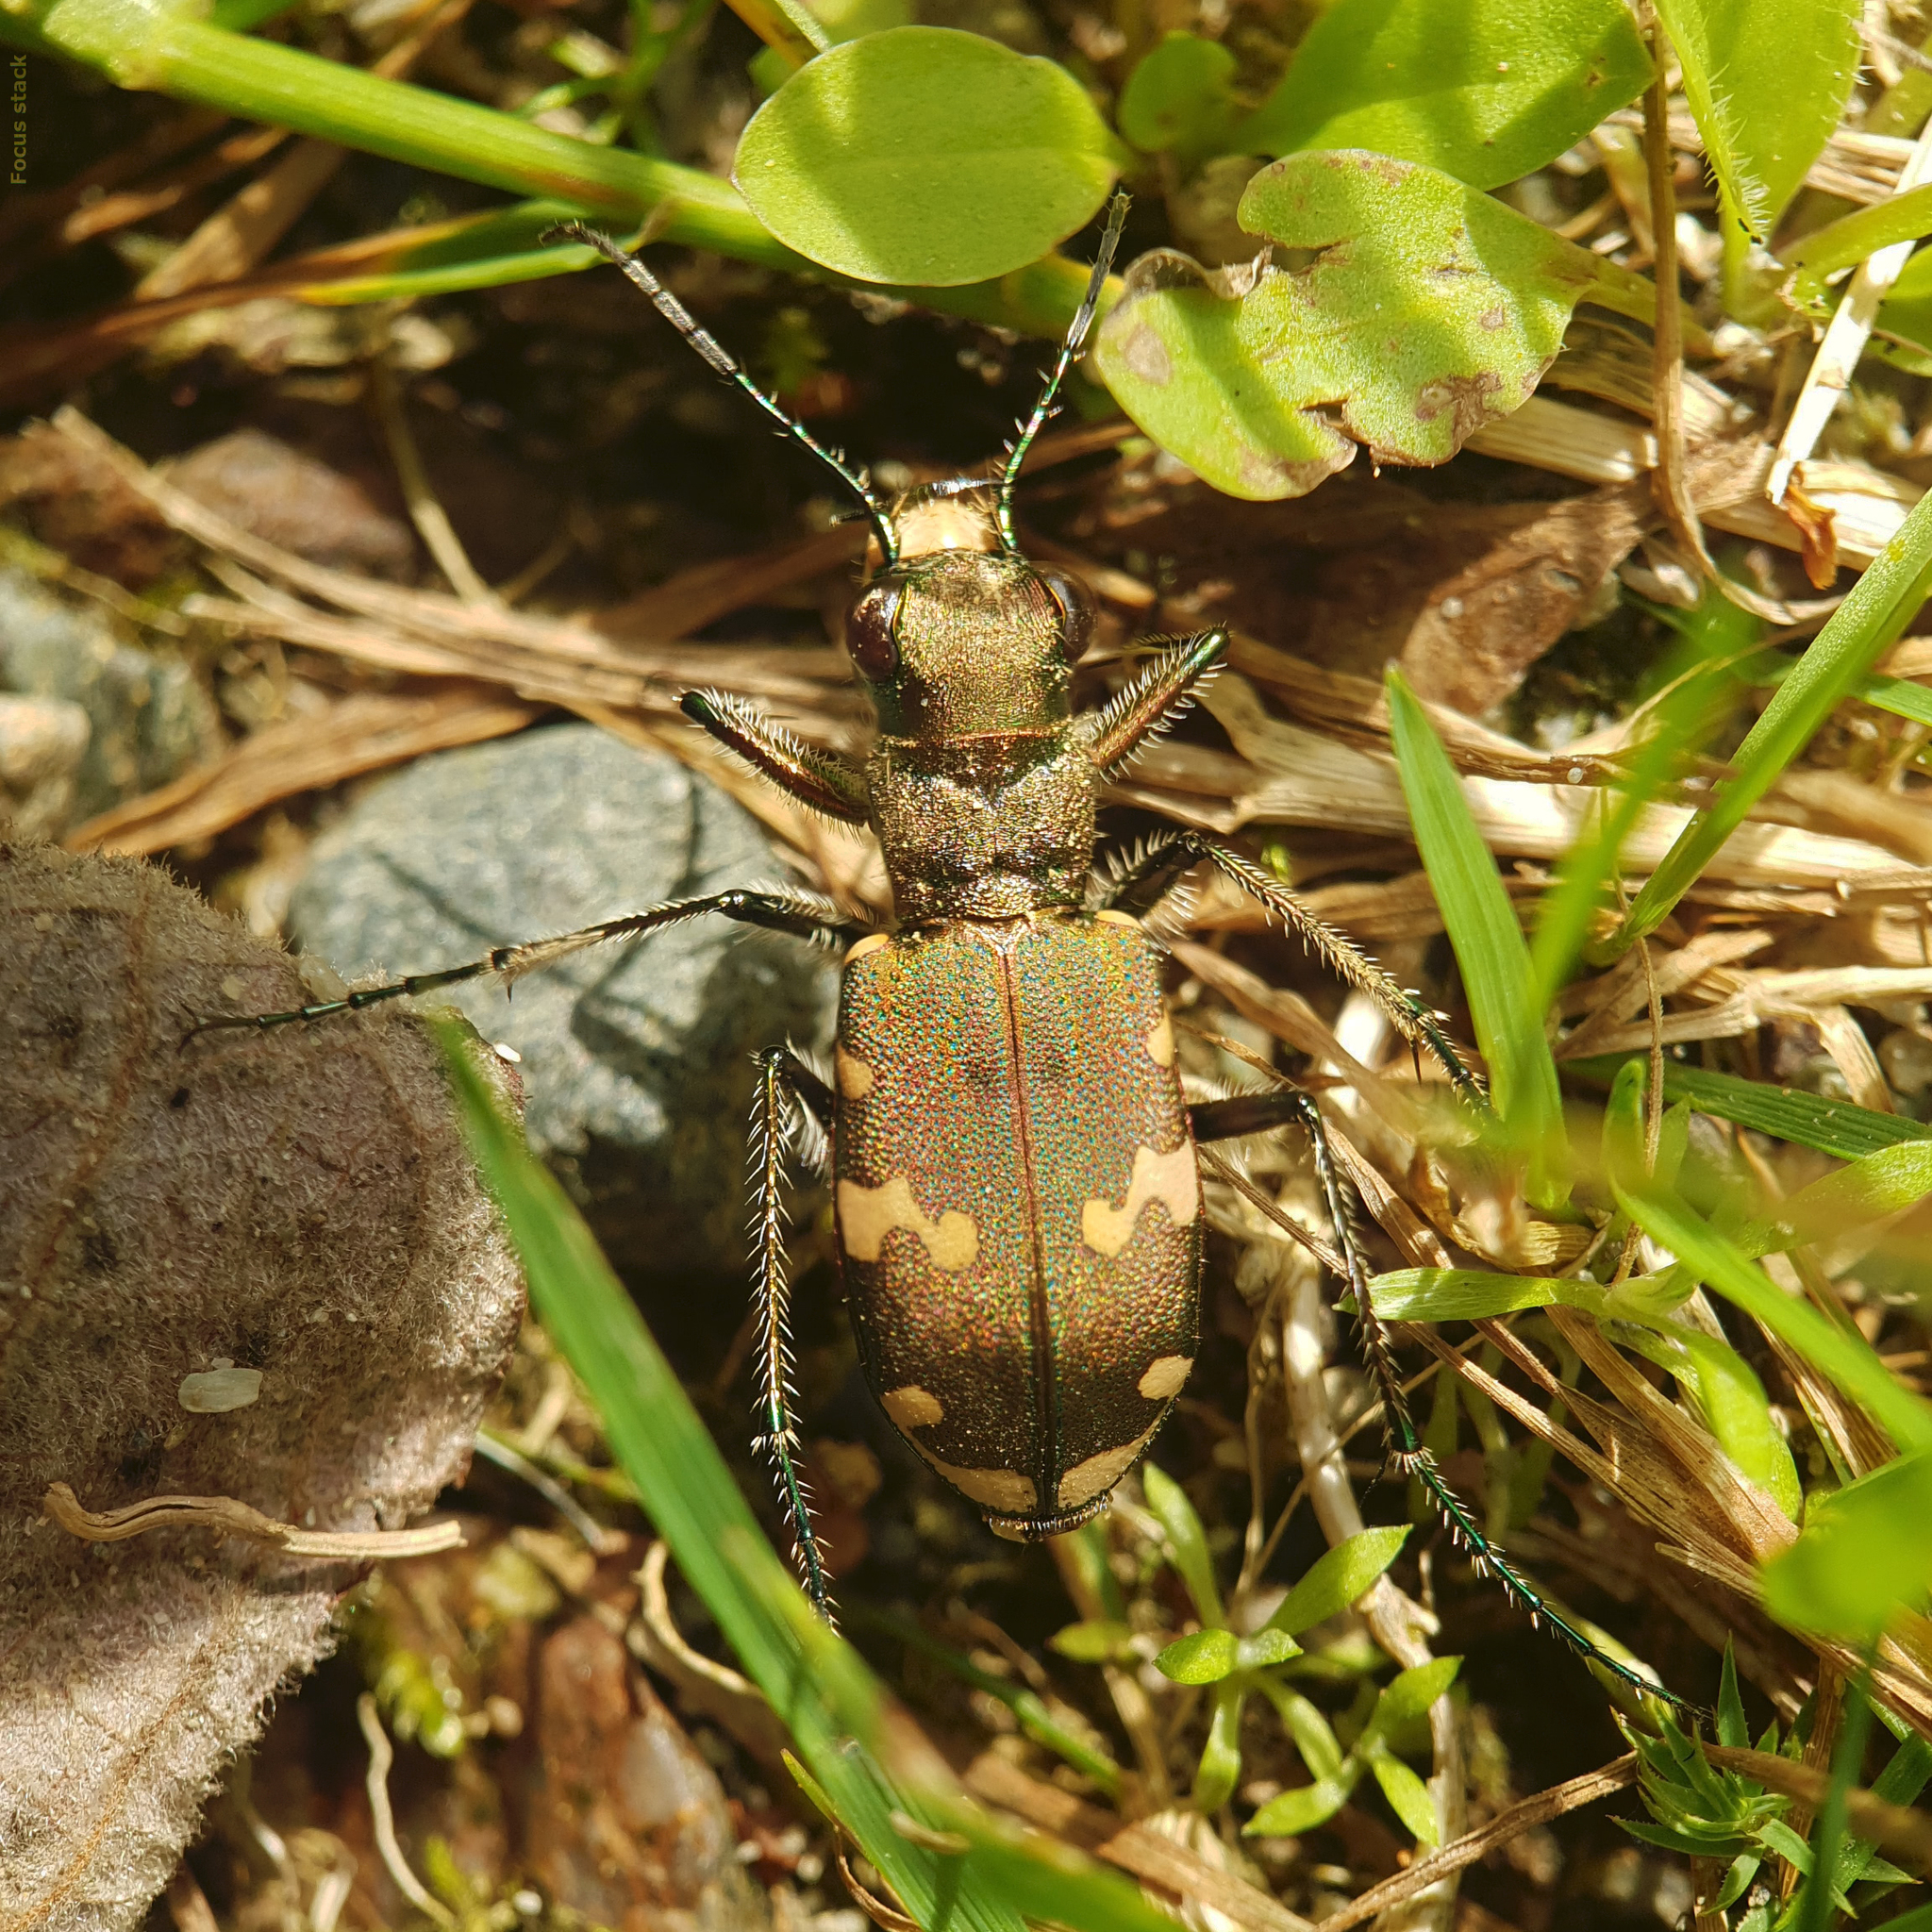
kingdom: Animalia
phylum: Arthropoda
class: Insecta
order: Coleoptera
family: Carabidae
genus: Cicindela
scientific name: Cicindela sylvicola
